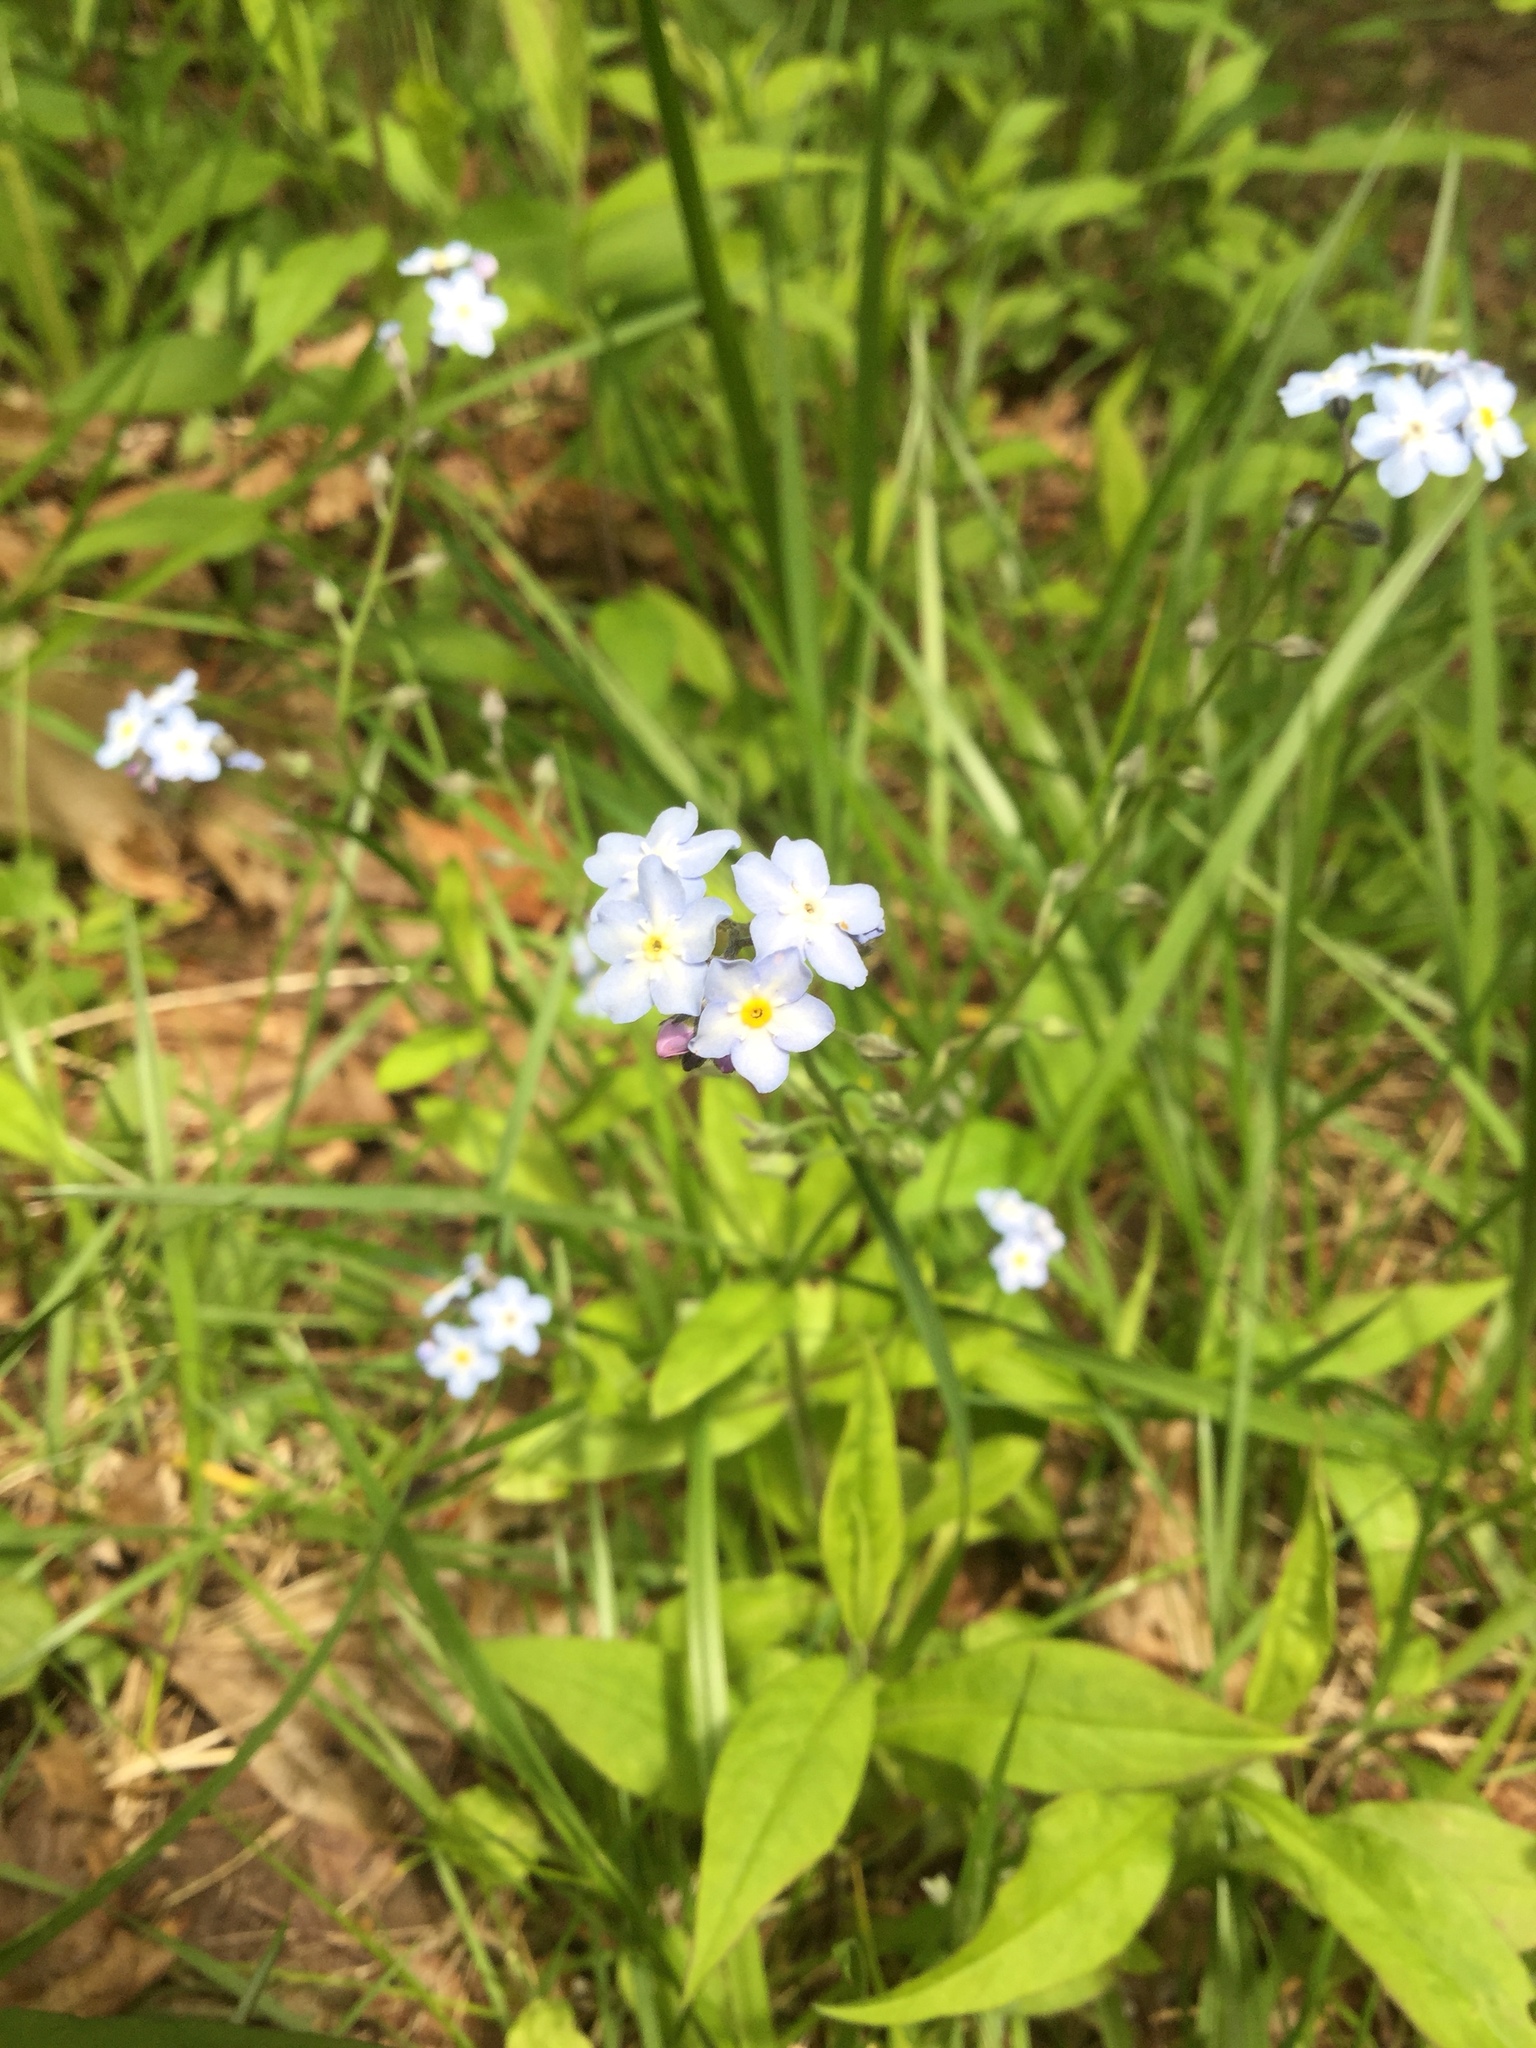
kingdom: Plantae
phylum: Tracheophyta
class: Magnoliopsida
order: Boraginales
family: Boraginaceae
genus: Myosotis
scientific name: Myosotis sylvatica
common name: Wood forget-me-not
